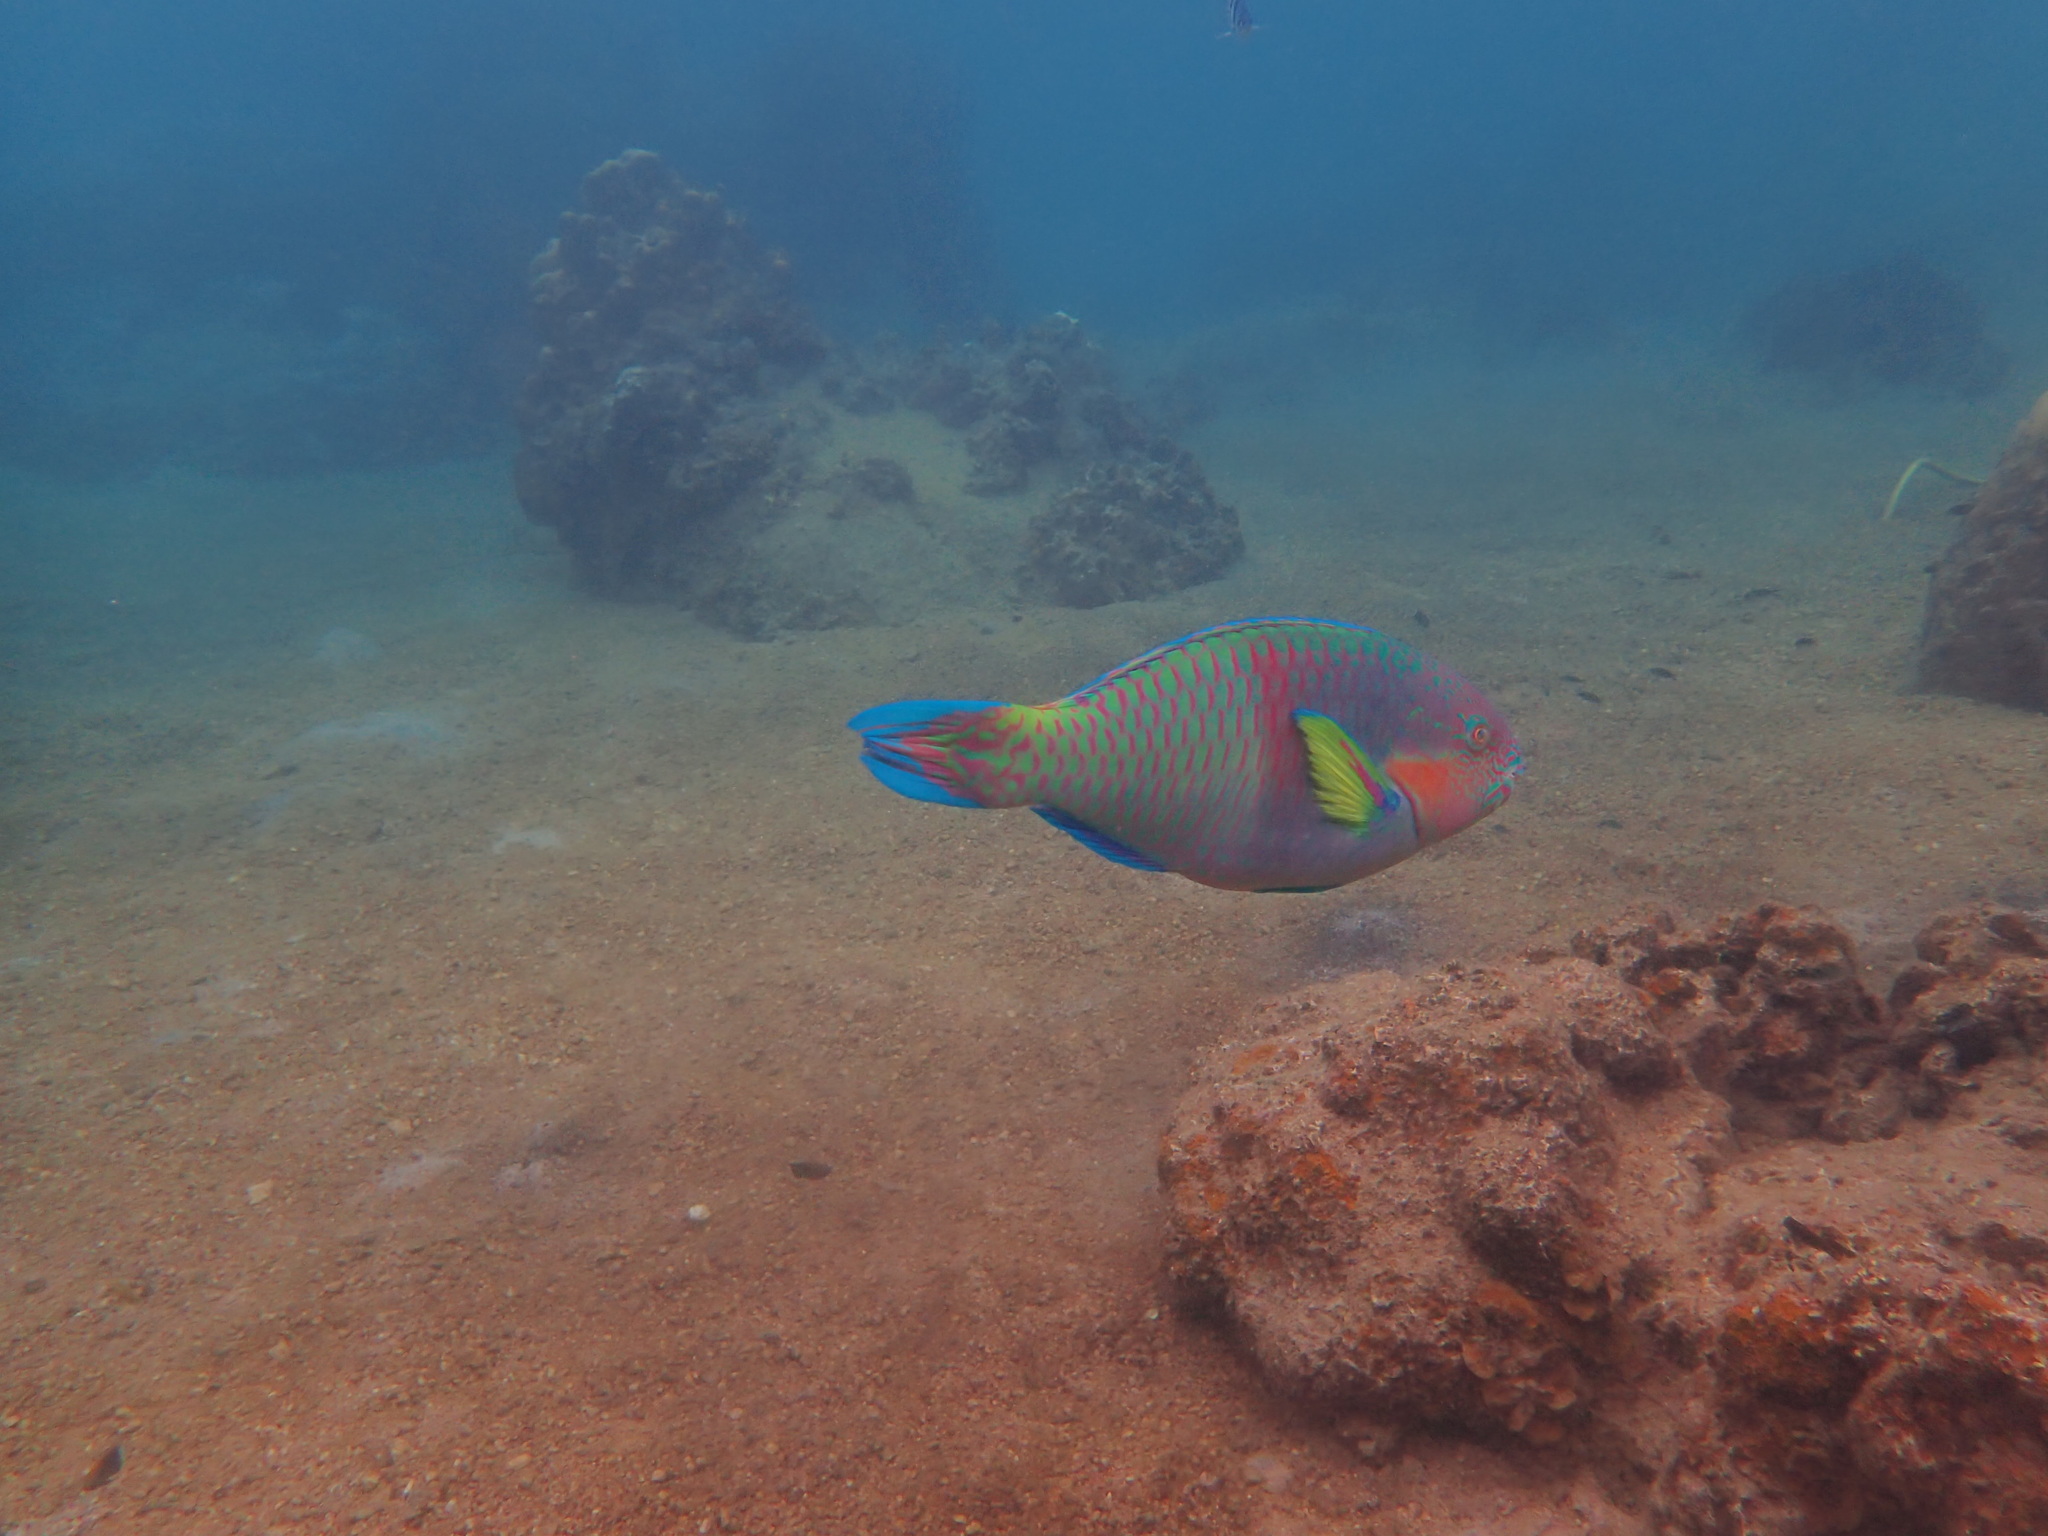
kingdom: Animalia
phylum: Chordata
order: Perciformes
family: Scaridae
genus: Scarus
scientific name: Scarus rivulatus
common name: Surf parrotfish
